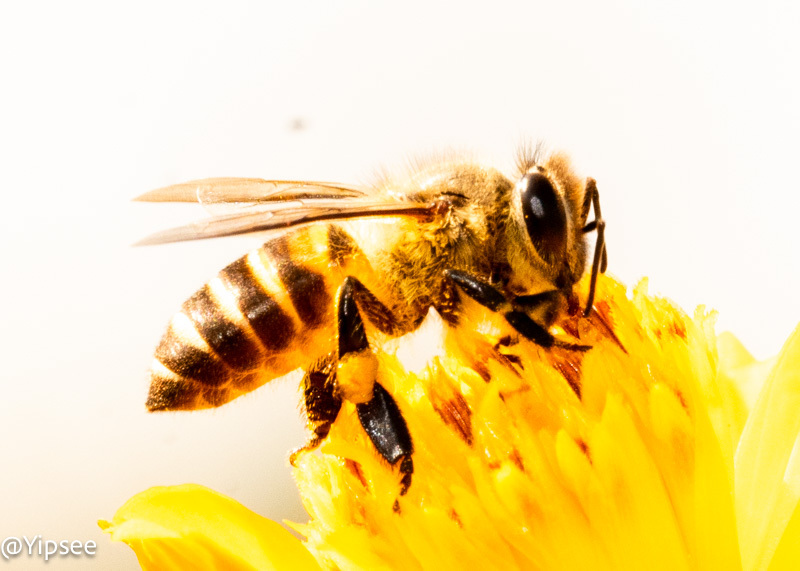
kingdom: Animalia
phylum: Arthropoda
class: Insecta
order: Hymenoptera
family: Apidae
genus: Apis
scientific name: Apis cerana
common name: Honey bee
